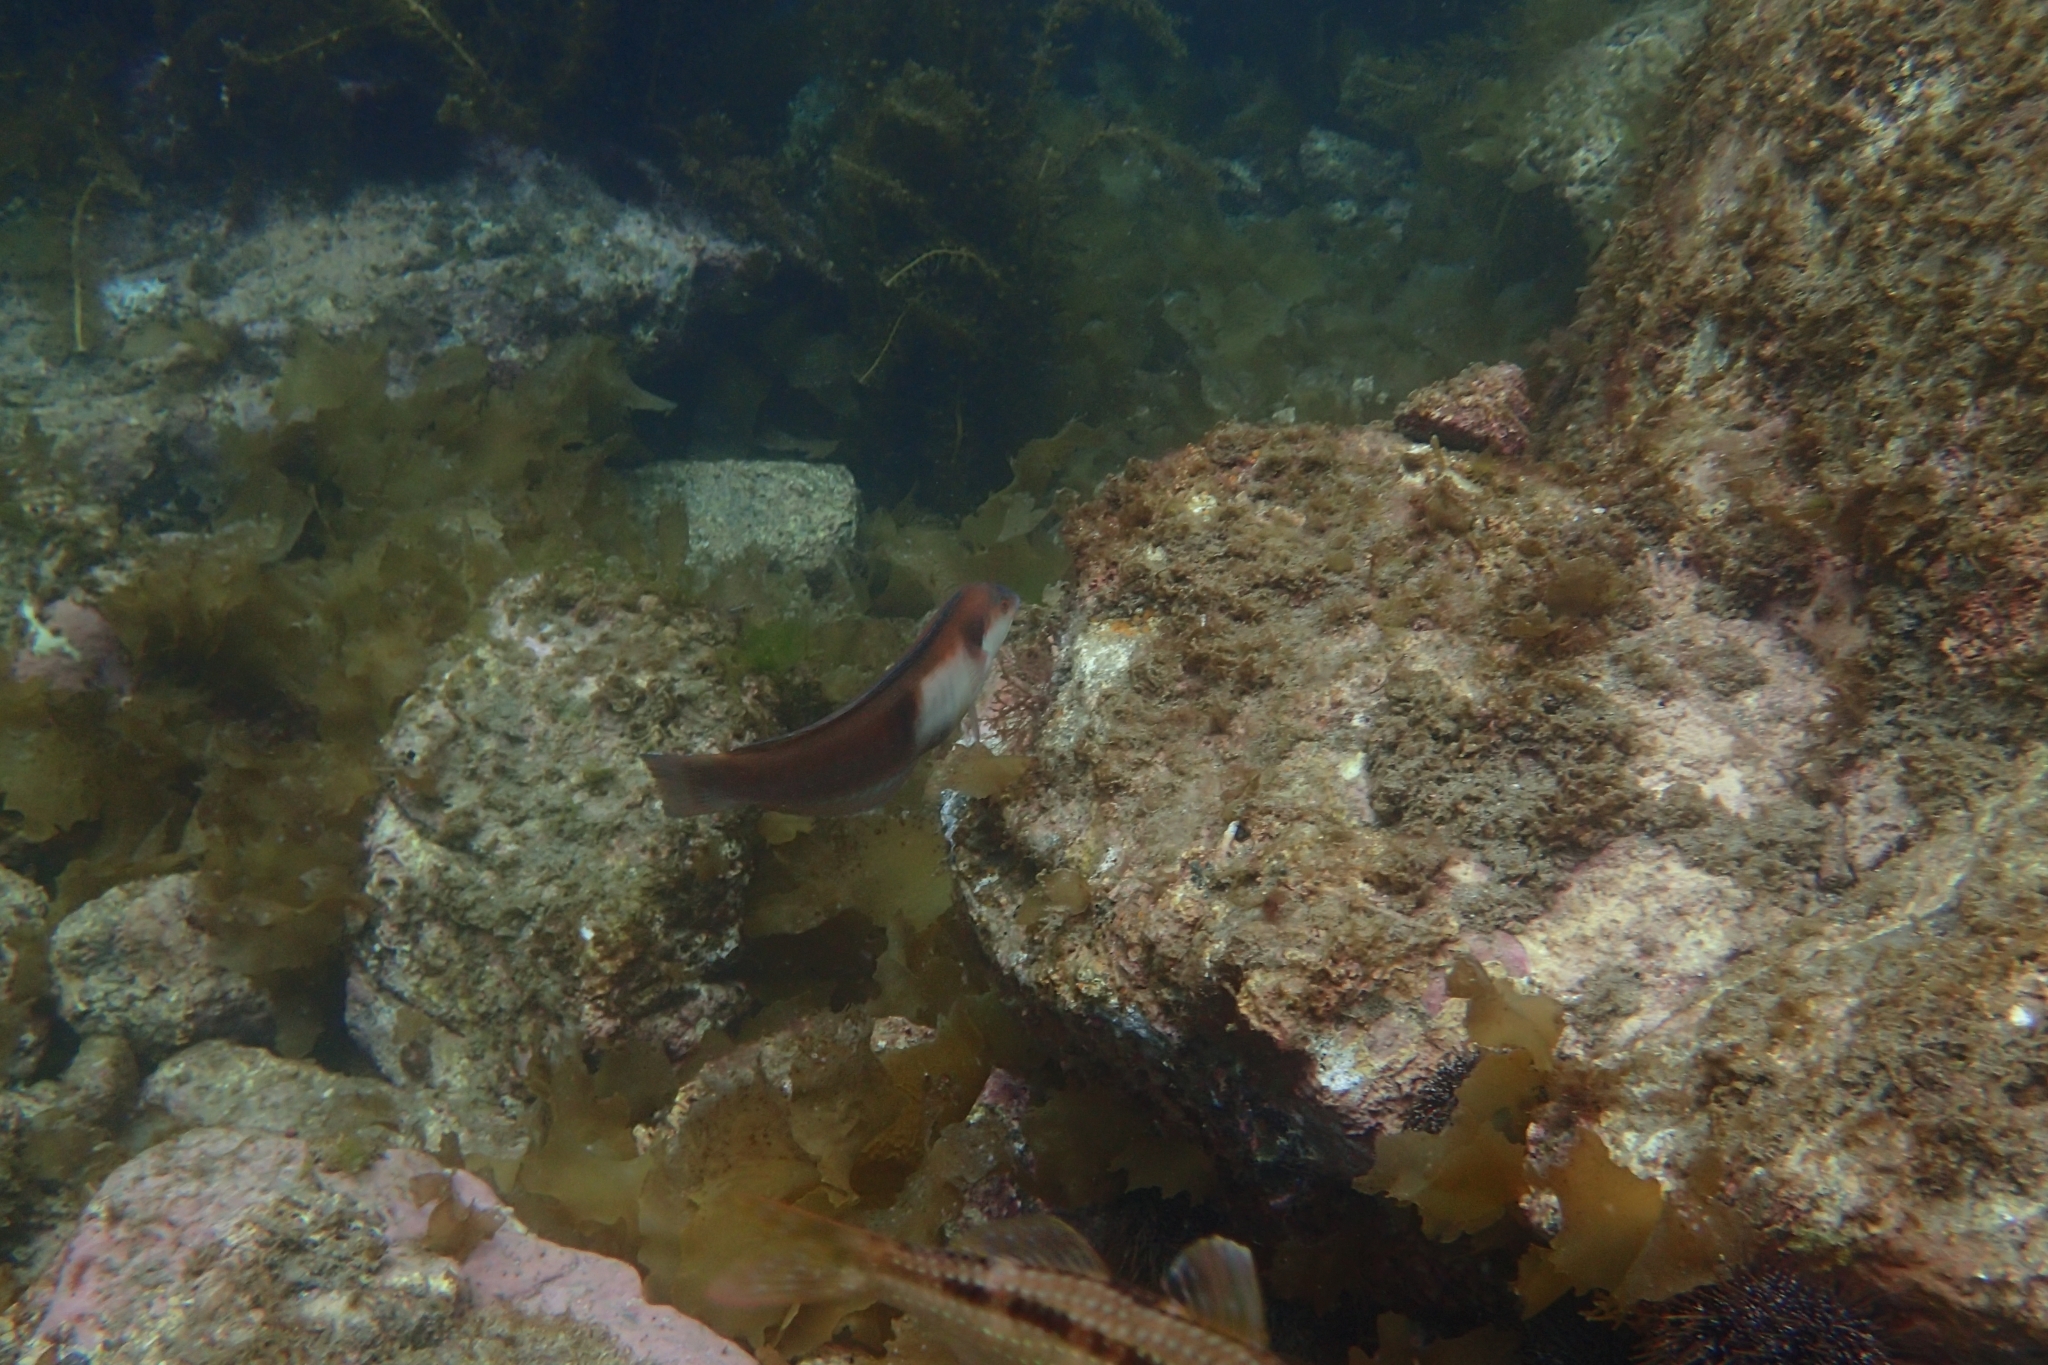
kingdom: Animalia
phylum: Chordata
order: Perciformes
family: Labridae
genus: Coris
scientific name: Coris sandeyeri
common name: Sandager's wrasse
